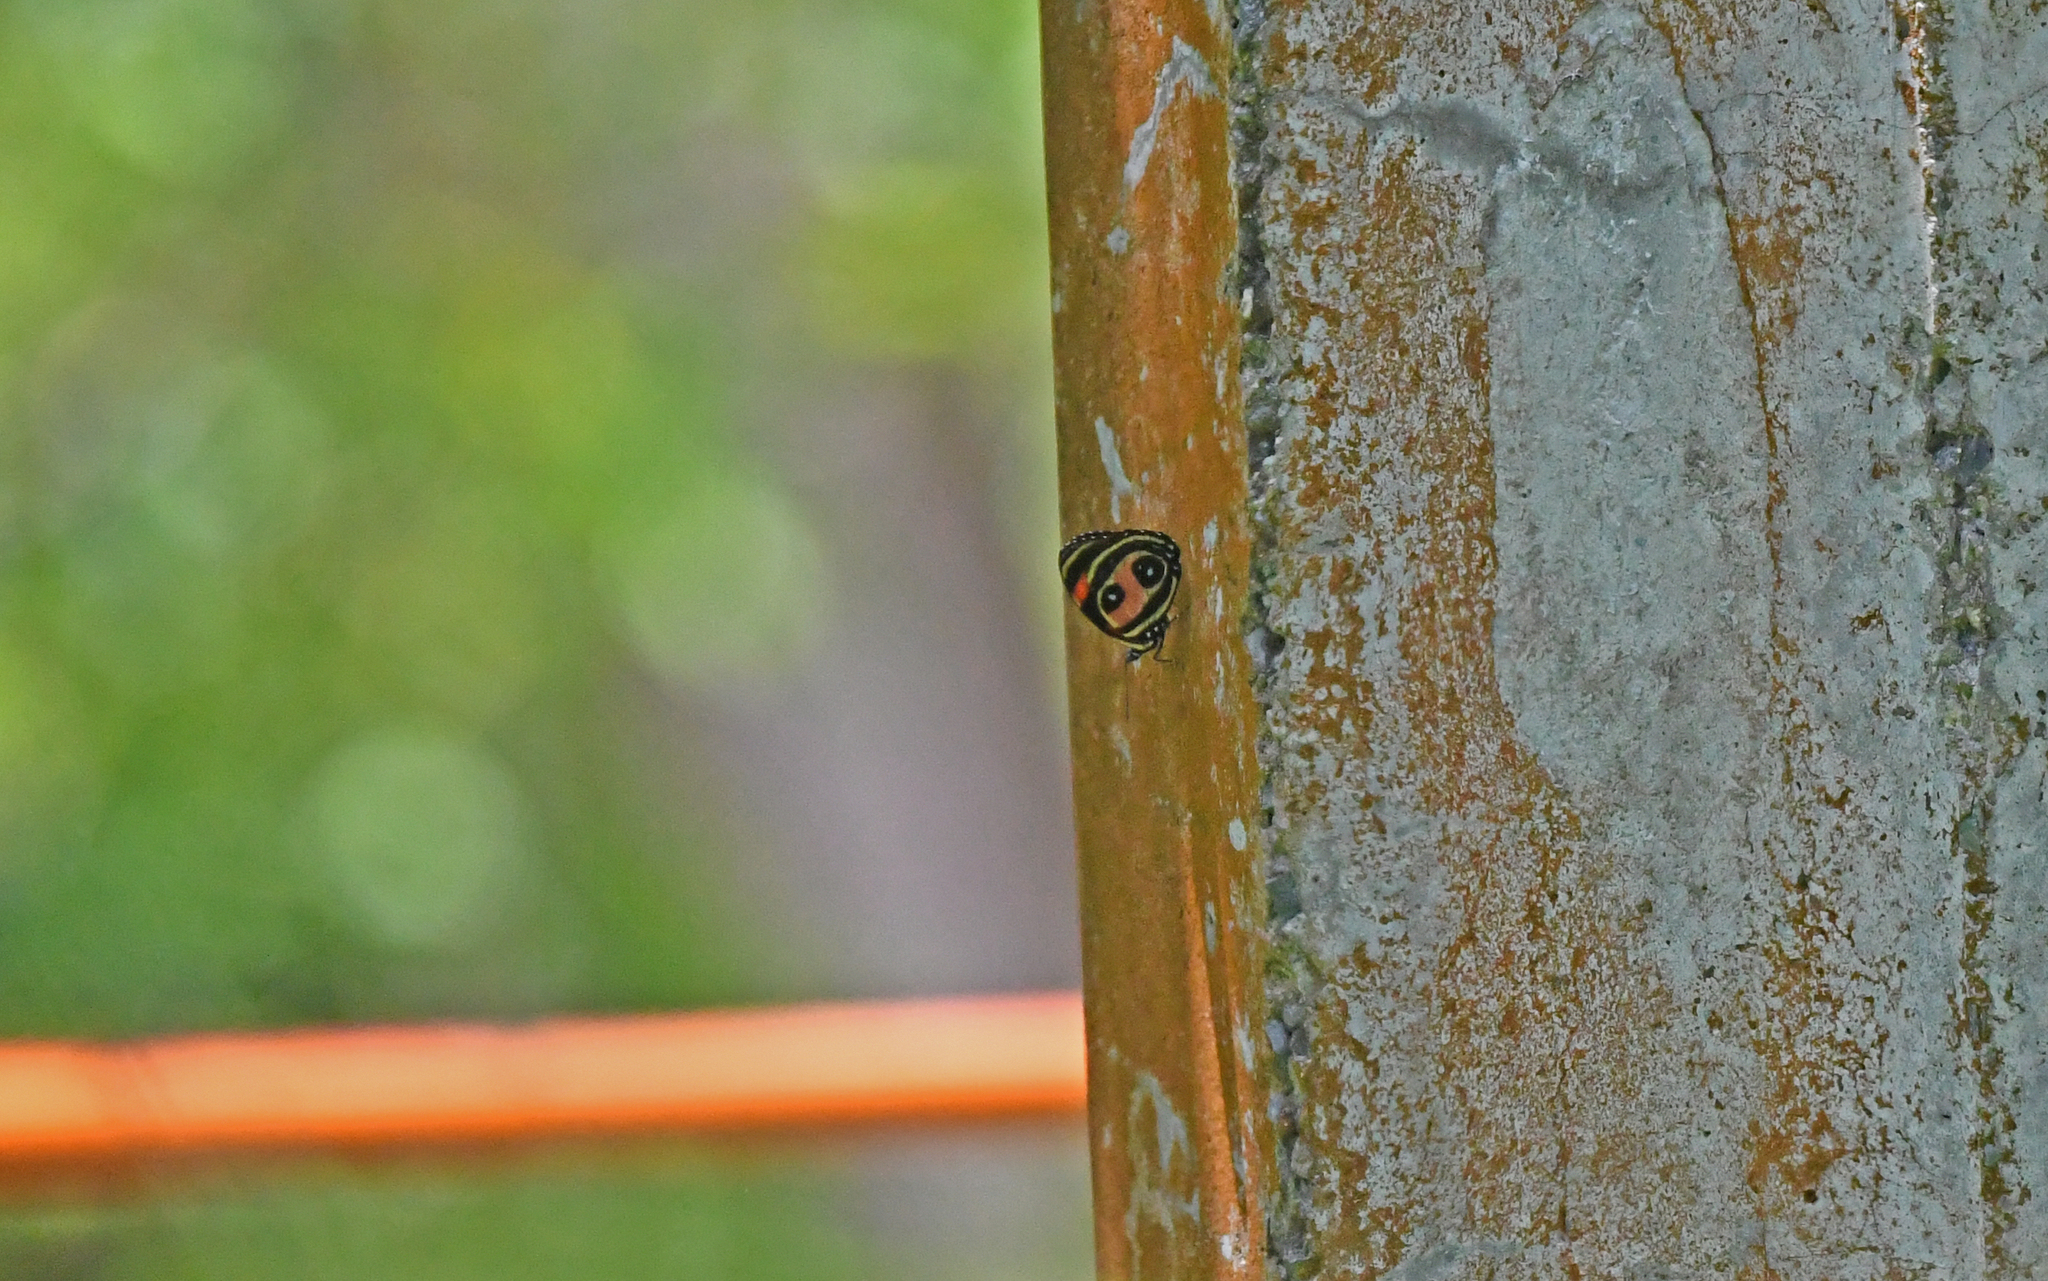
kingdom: Animalia
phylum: Arthropoda
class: Insecta
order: Lepidoptera
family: Nymphalidae
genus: Catagramma
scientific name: Catagramma Callicore pitheas
